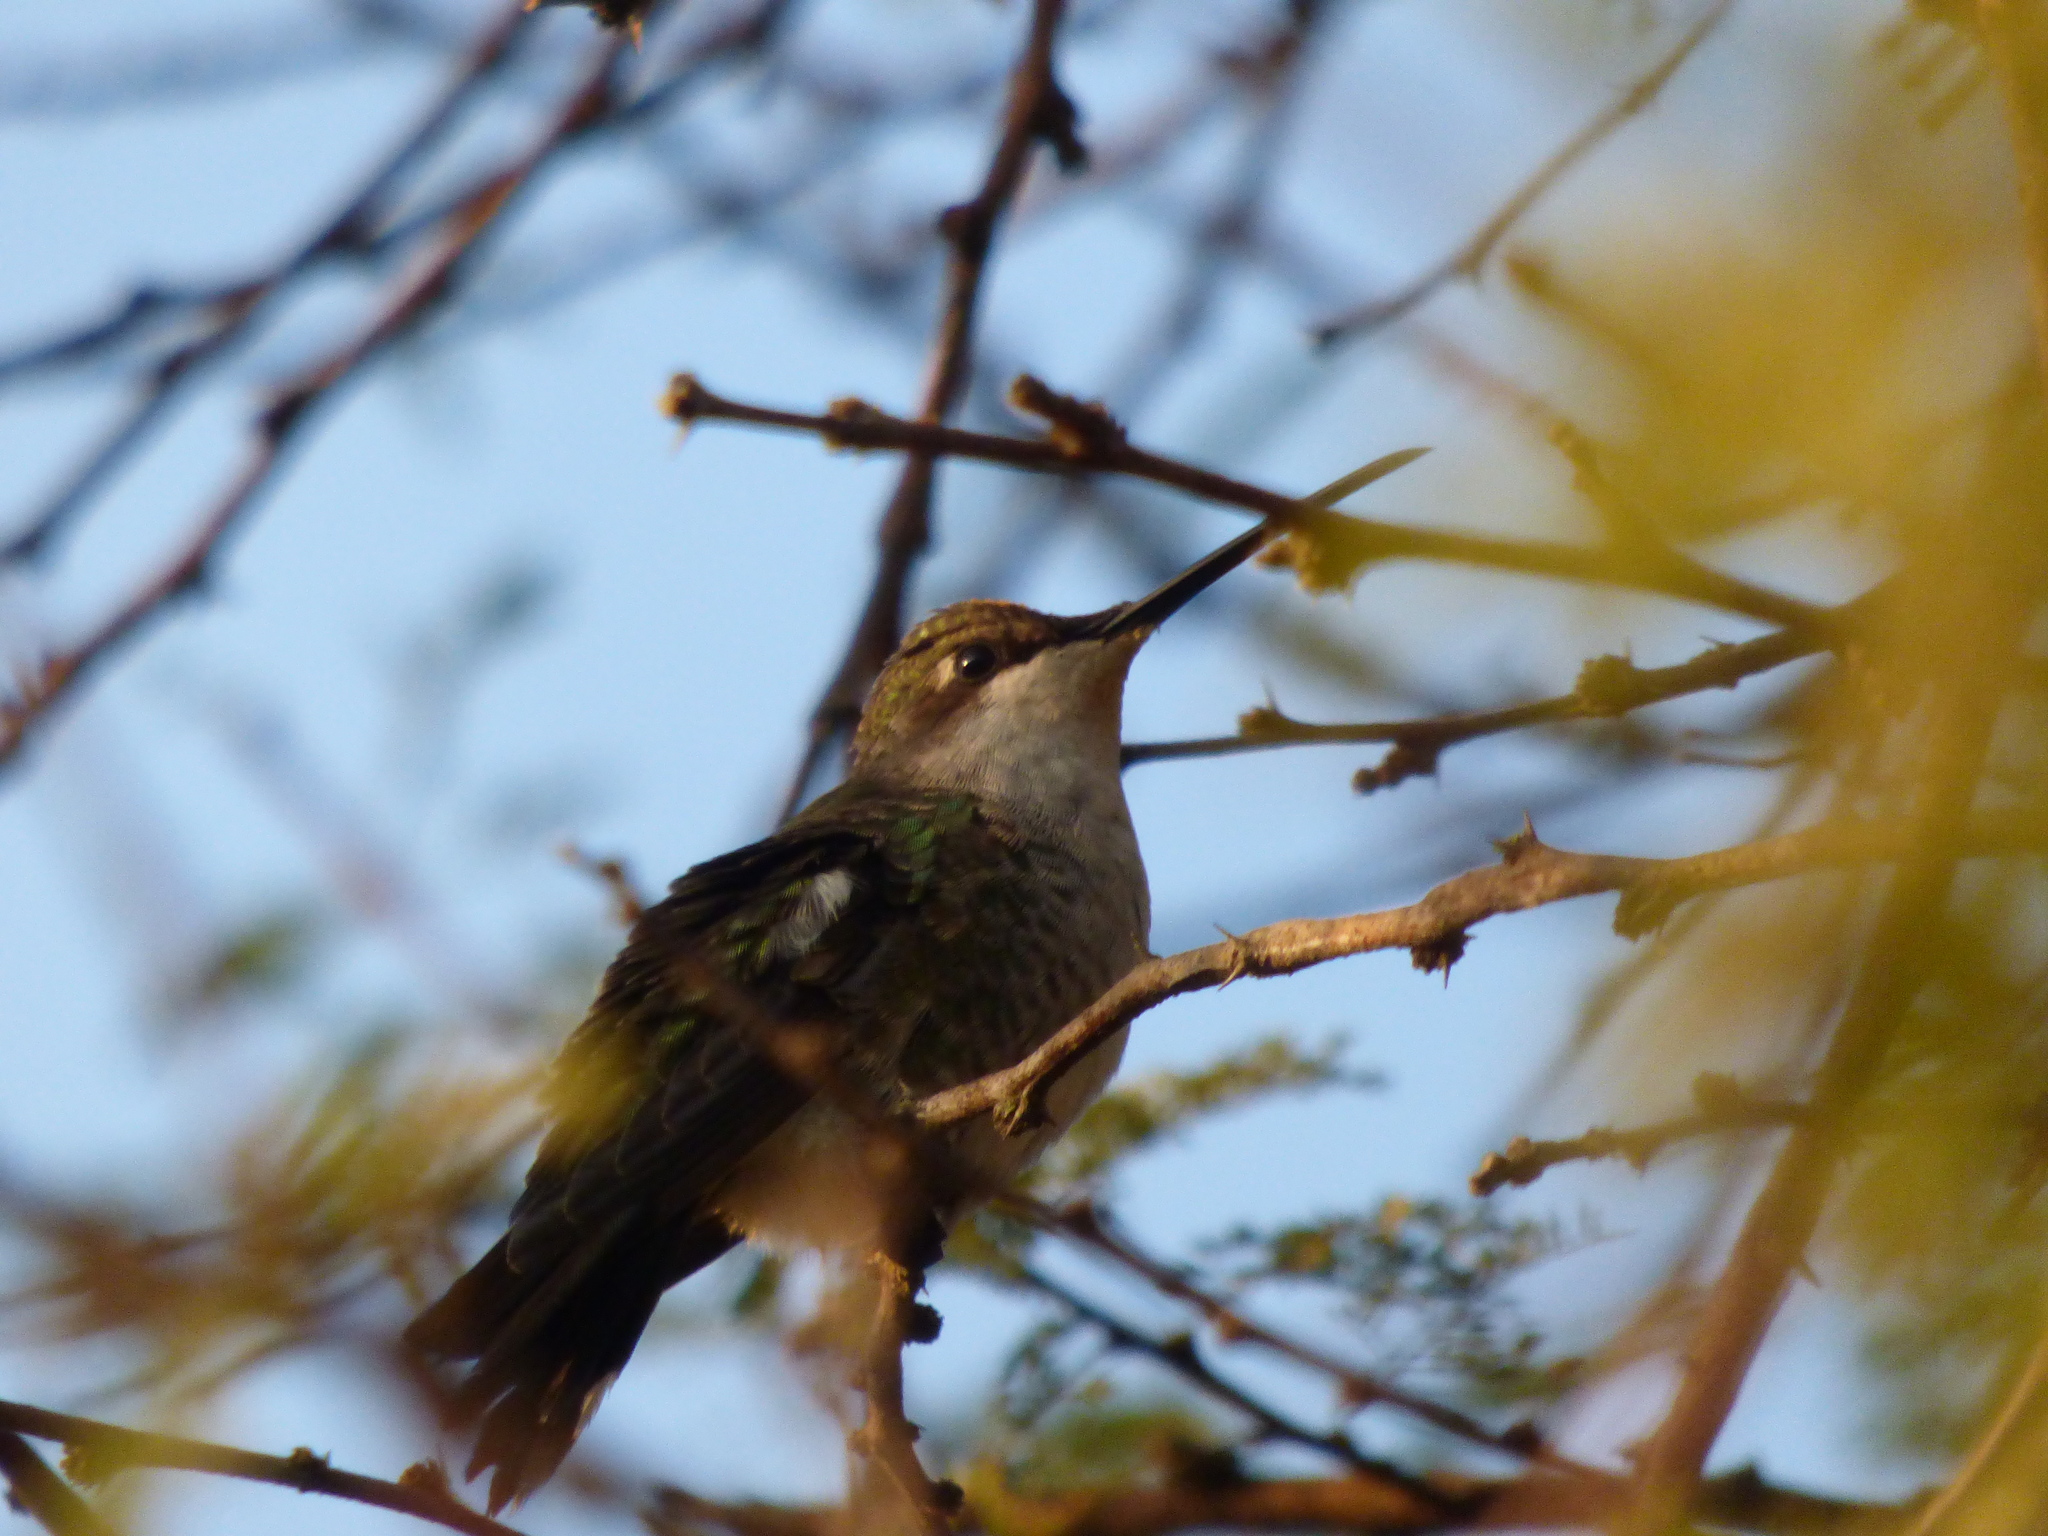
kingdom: Animalia
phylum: Chordata
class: Aves
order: Apodiformes
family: Trochilidae
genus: Heliomaster
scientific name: Heliomaster furcifer
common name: Blue-tufted starthroat
